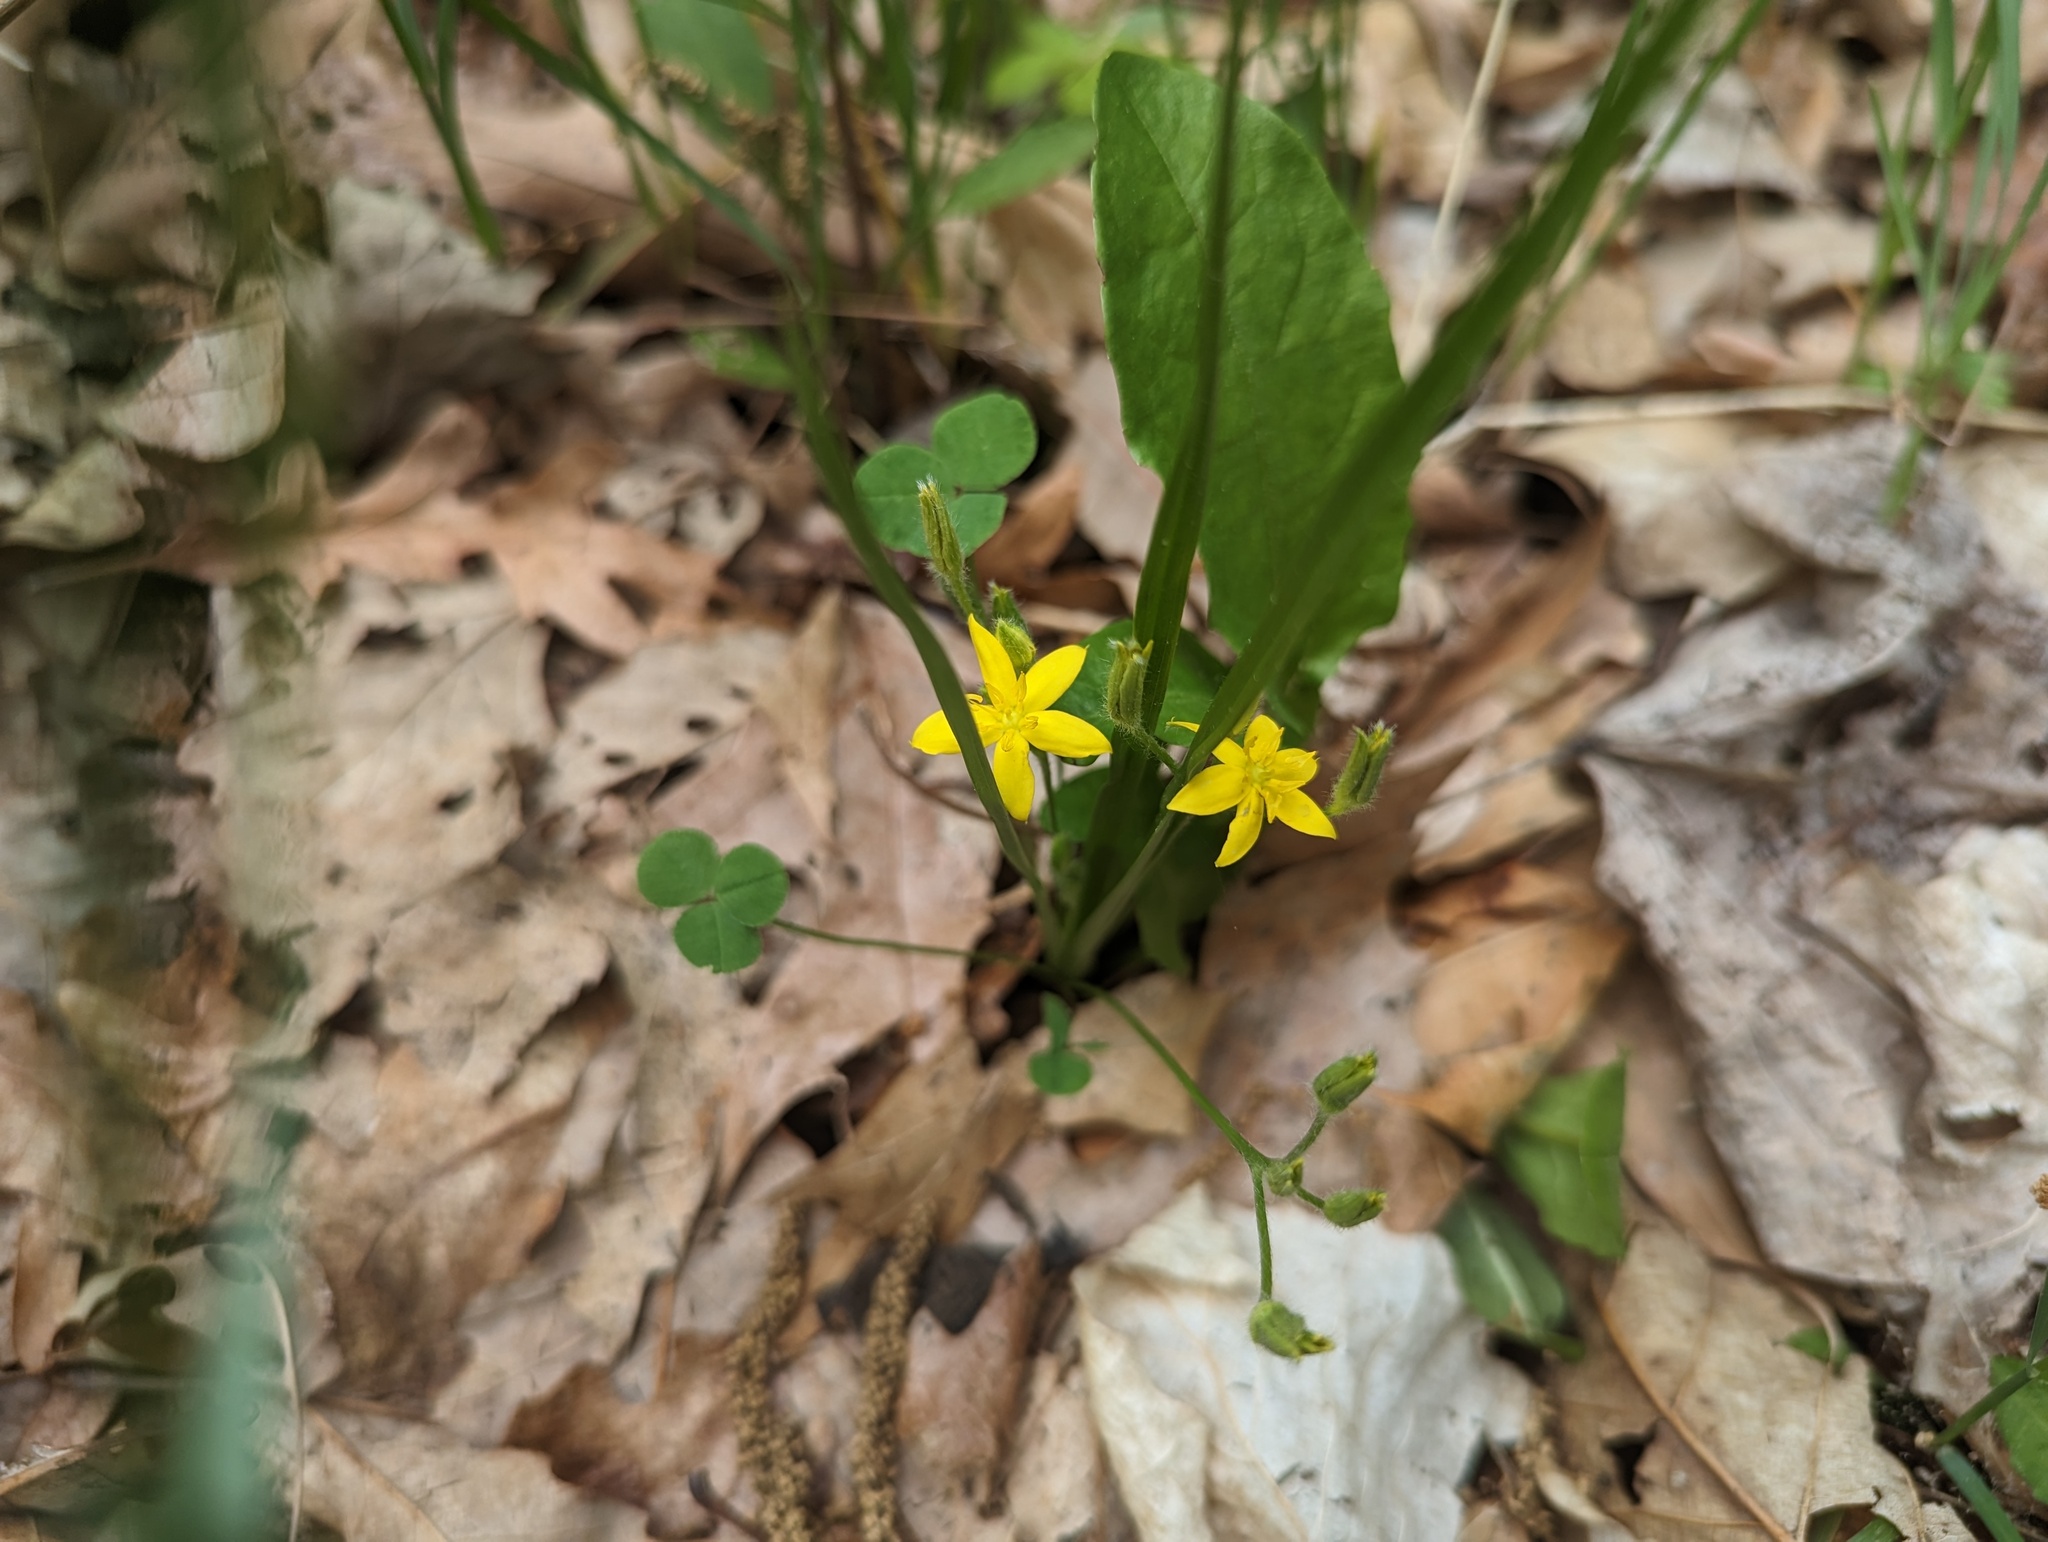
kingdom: Plantae
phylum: Tracheophyta
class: Liliopsida
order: Asparagales
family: Hypoxidaceae
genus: Hypoxis
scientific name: Hypoxis hirsuta
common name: Common goldstar
